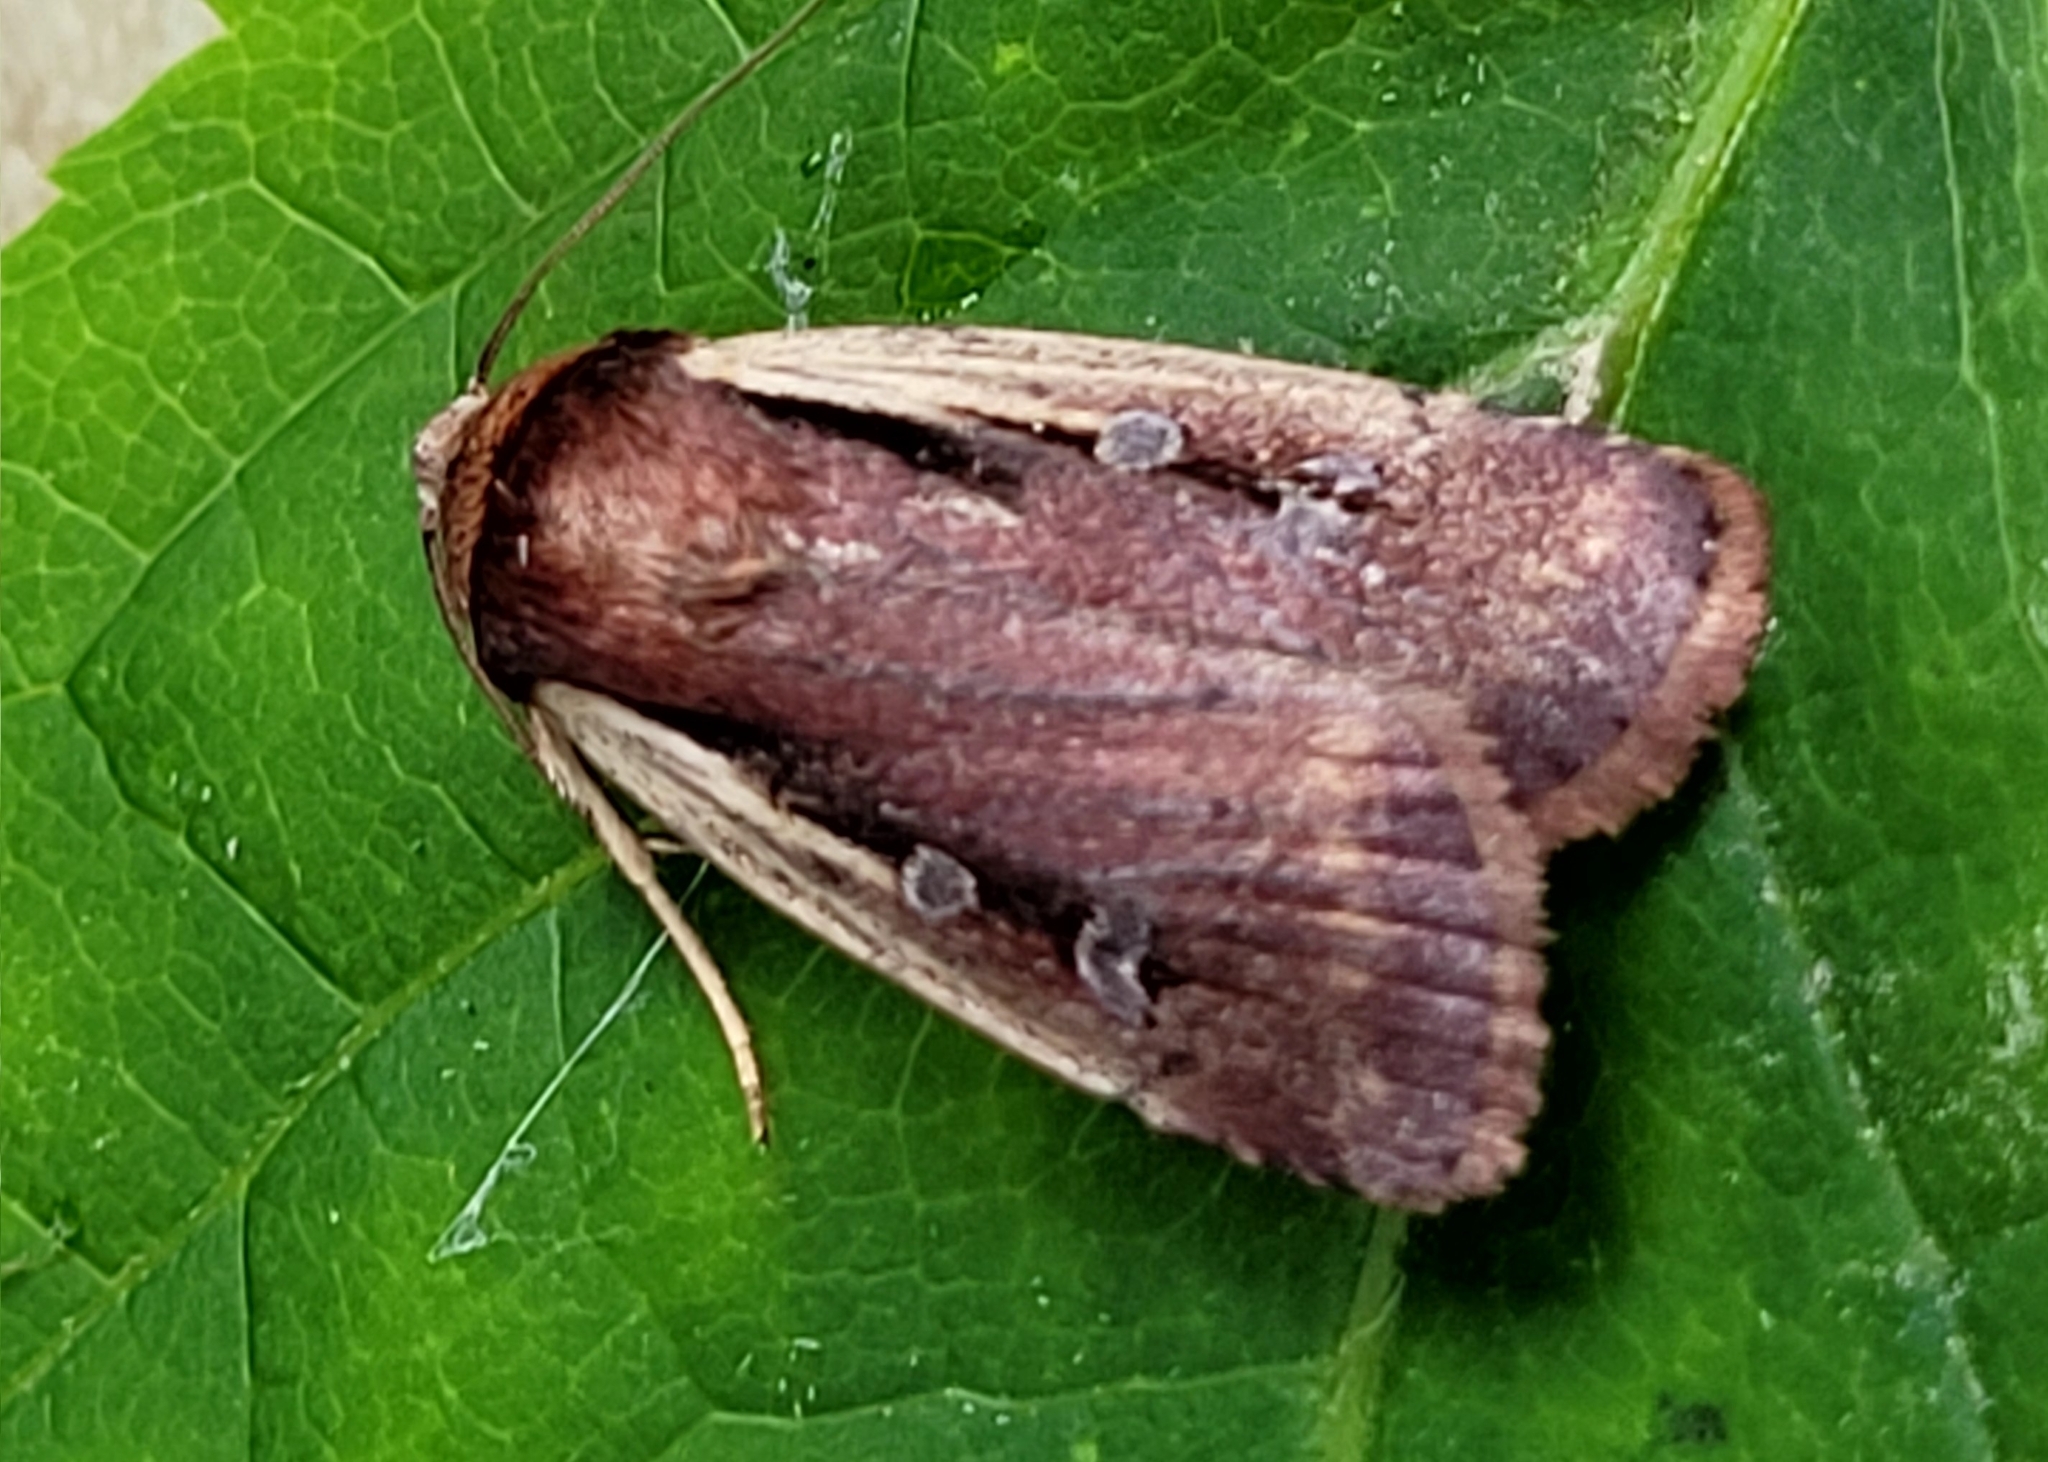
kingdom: Animalia
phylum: Arthropoda
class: Insecta
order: Lepidoptera
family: Noctuidae
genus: Ochropleura
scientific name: Ochropleura implecta
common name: Flame-shouldered dart
